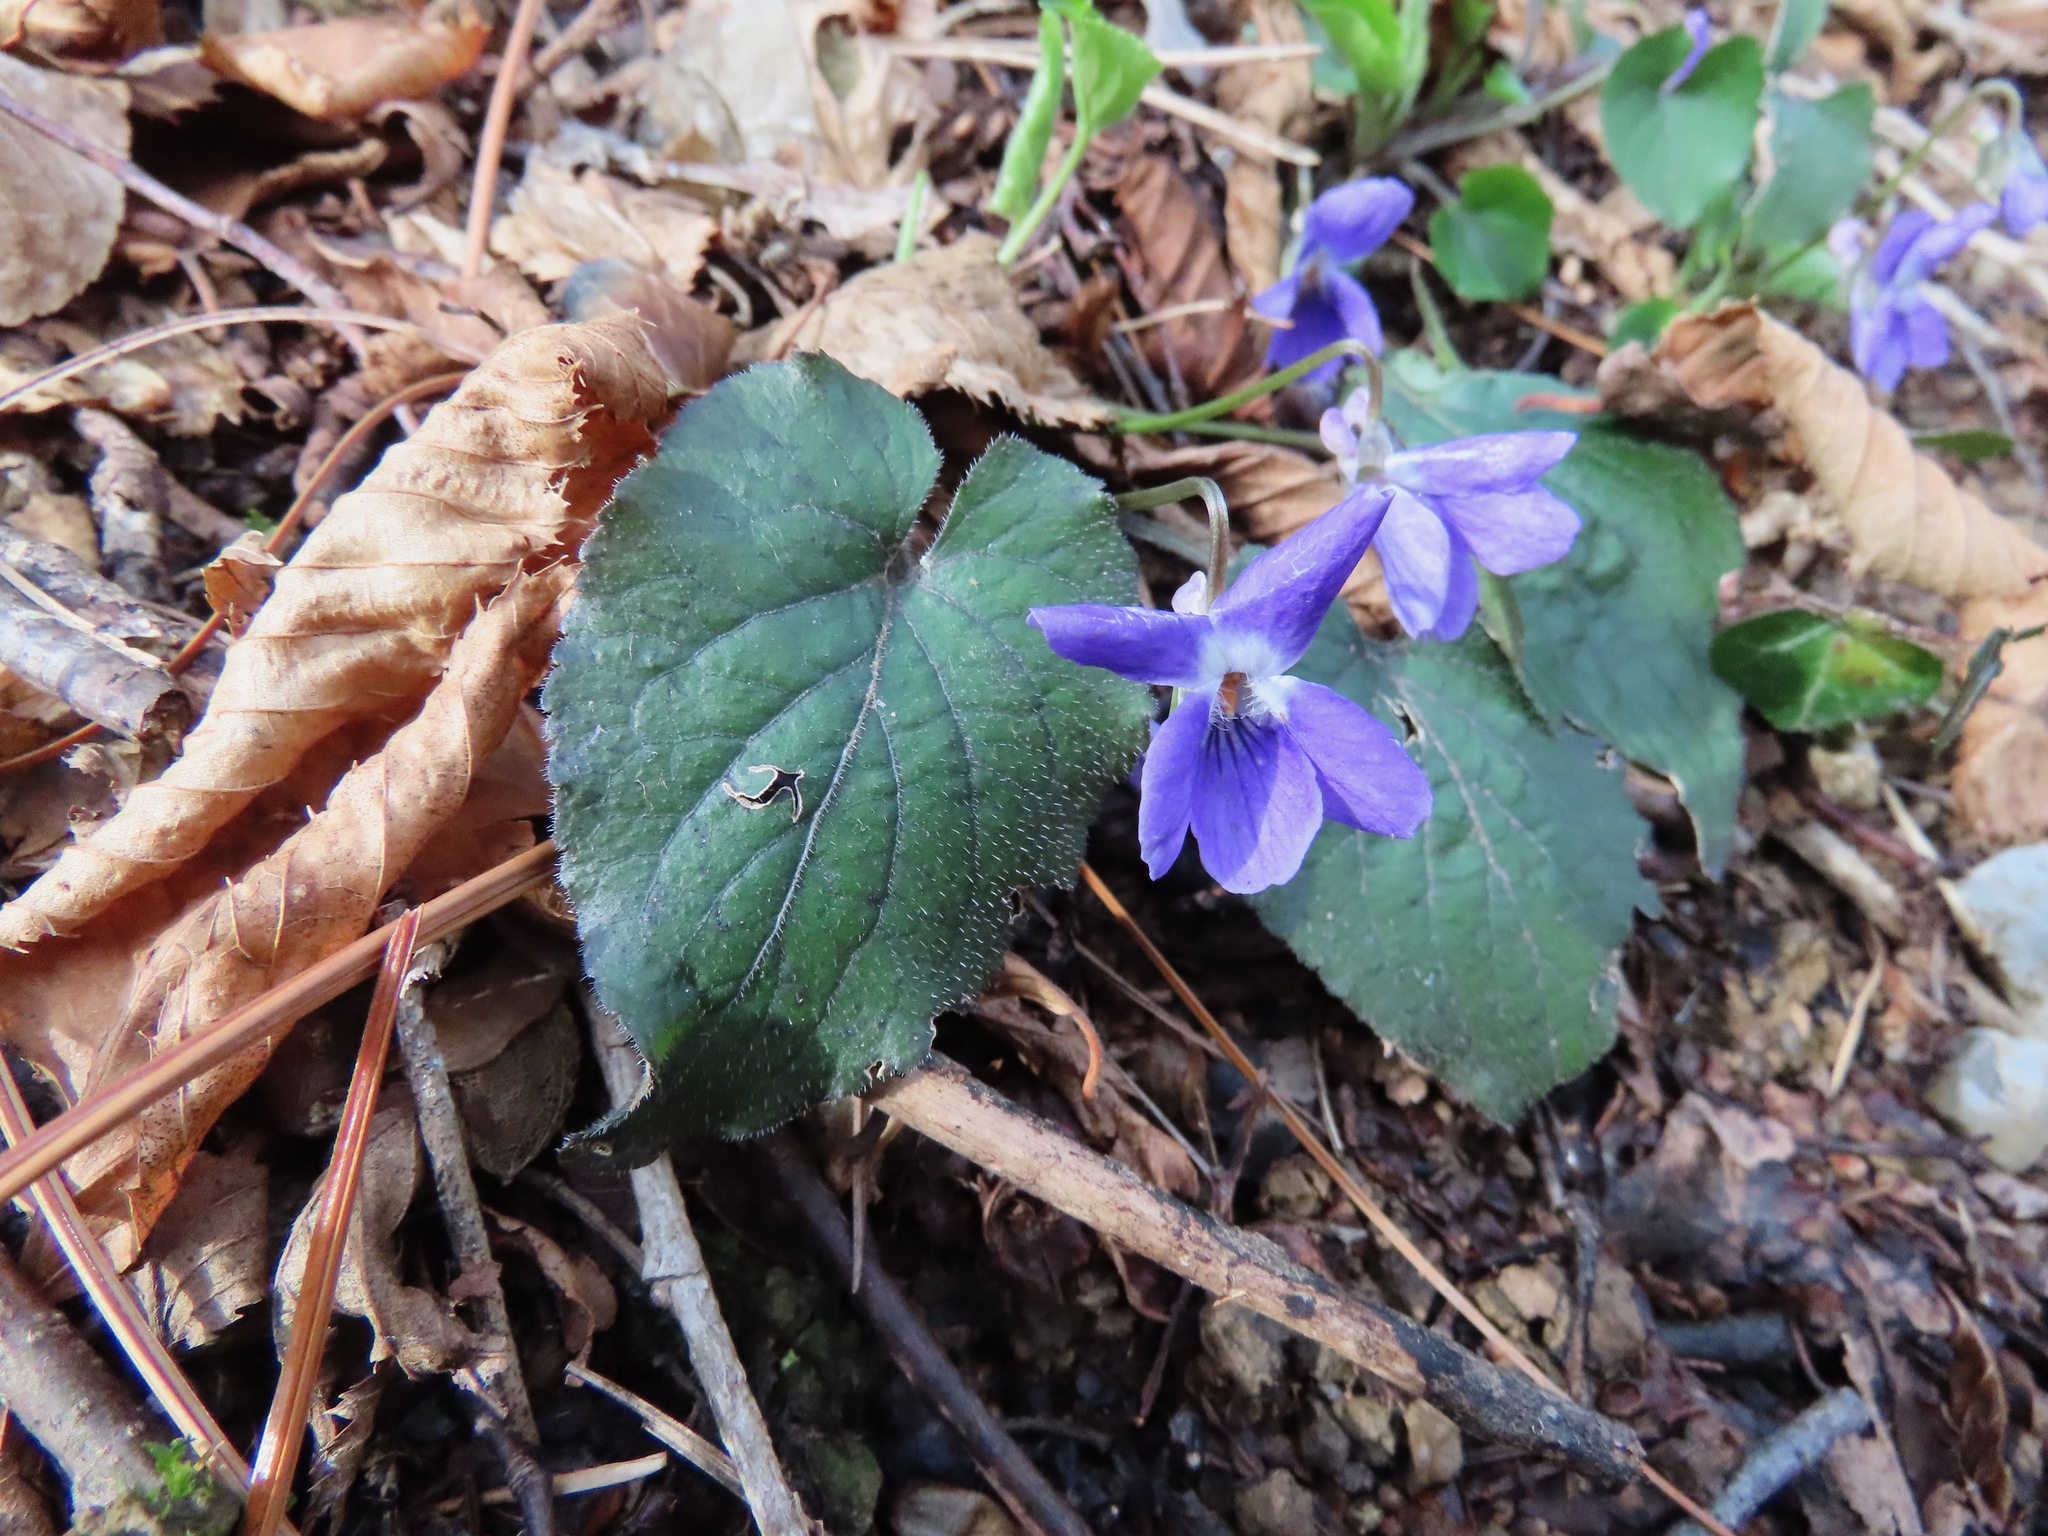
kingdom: Plantae
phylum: Tracheophyta
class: Magnoliopsida
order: Malpighiales
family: Violaceae
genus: Viola
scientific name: Viola alba
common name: White violet
